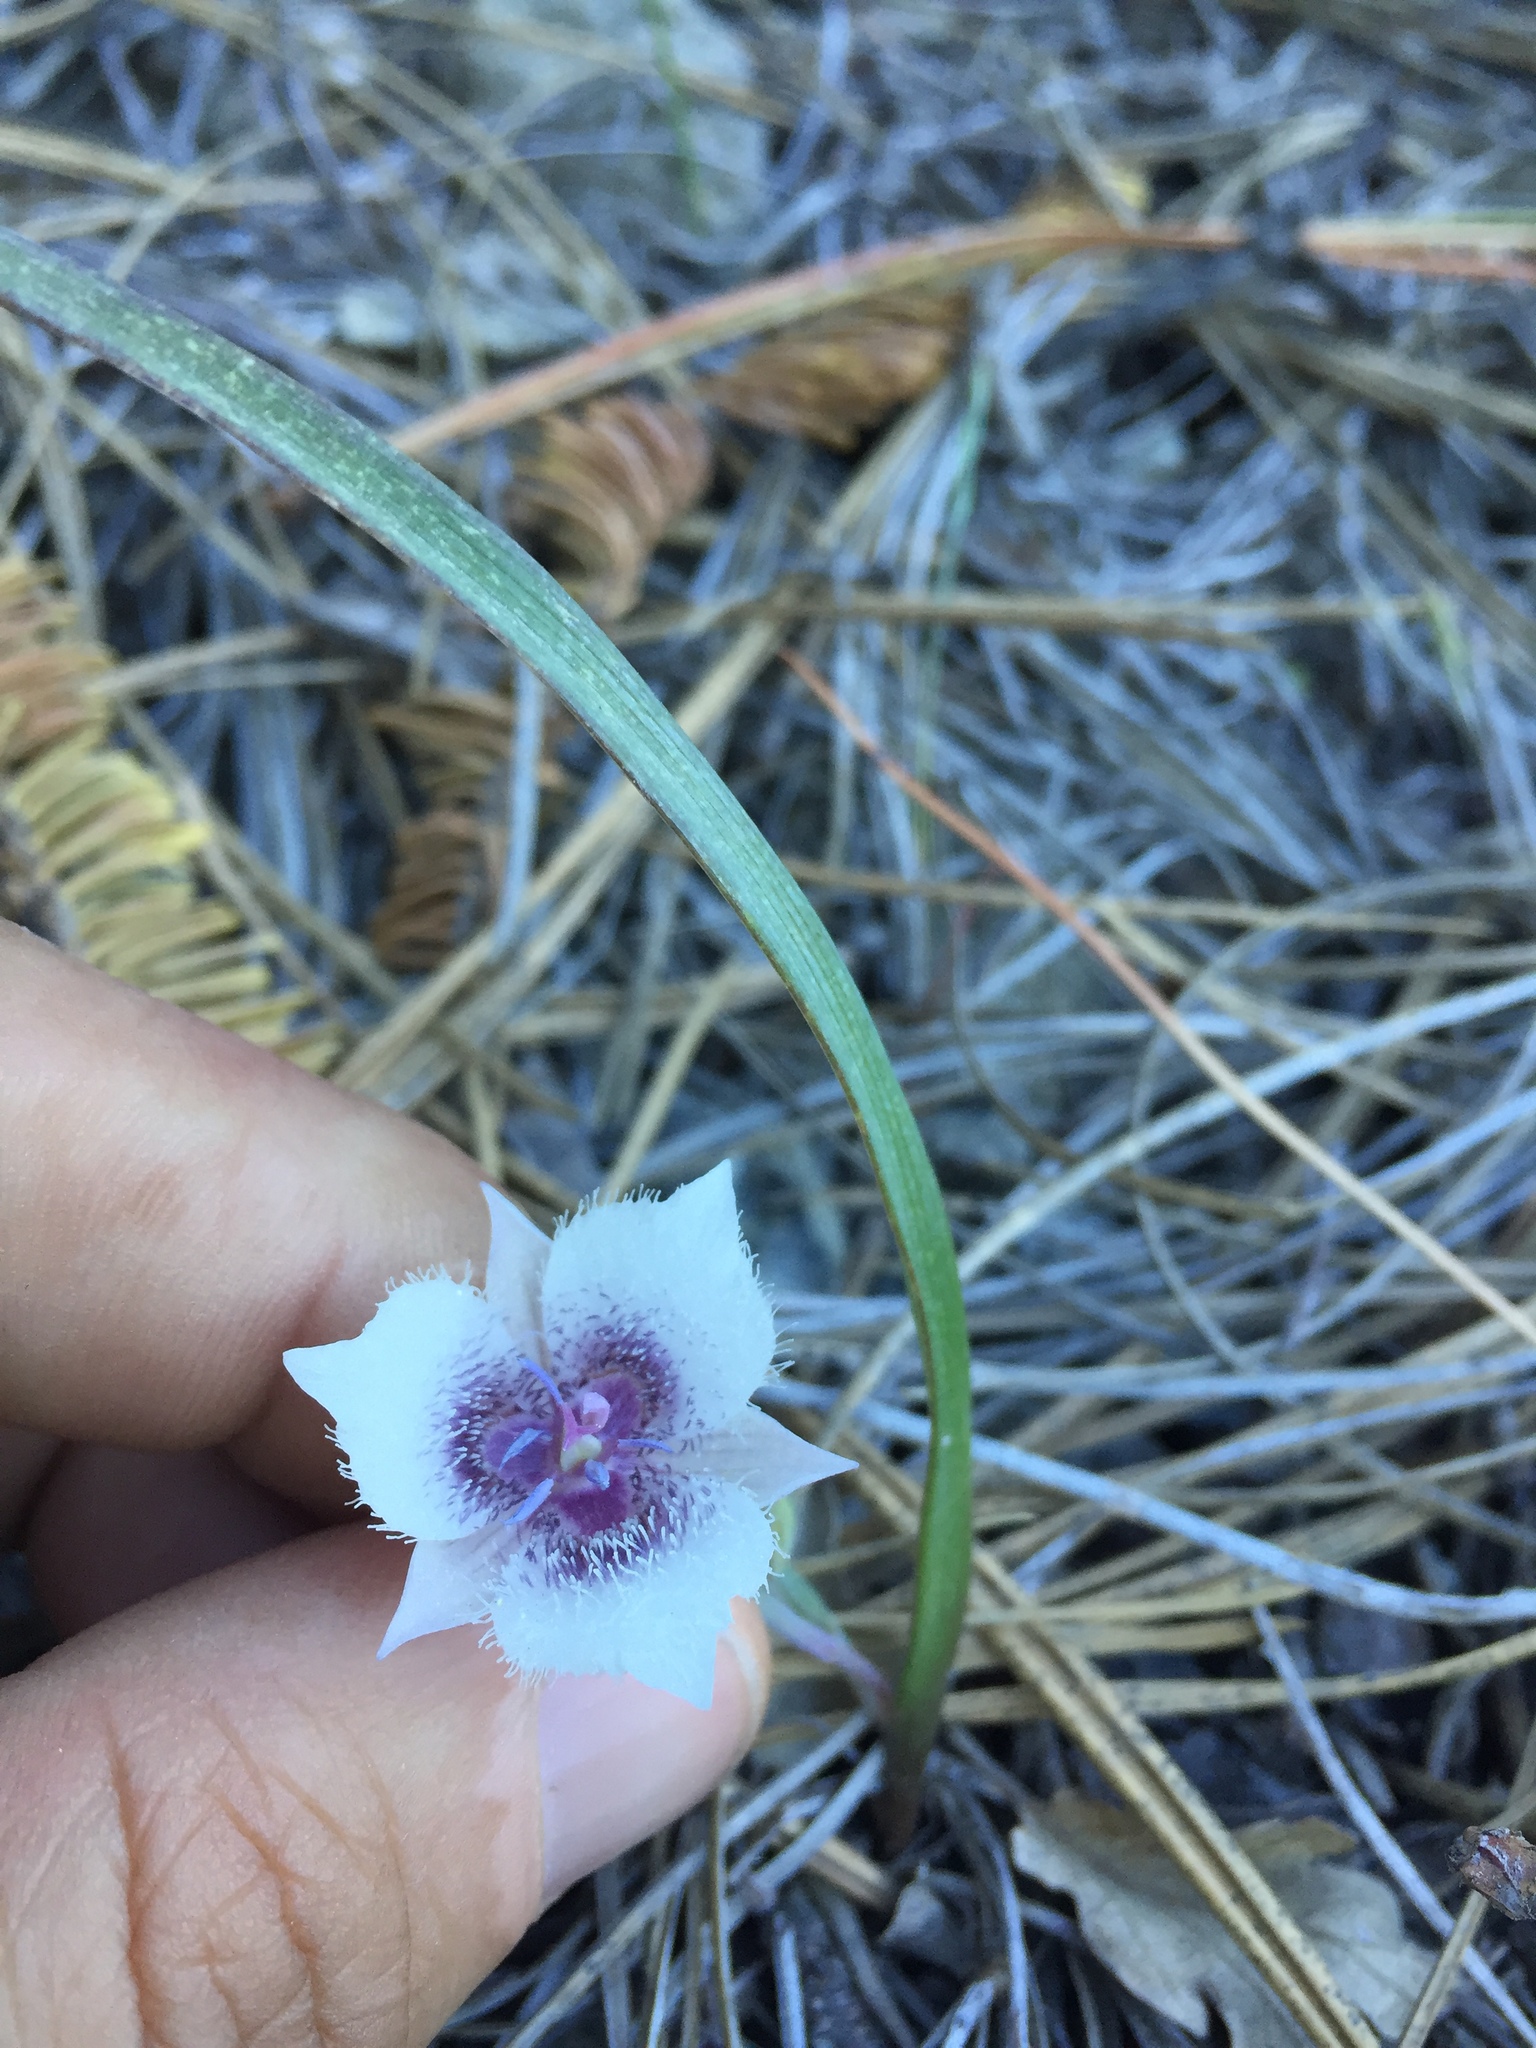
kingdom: Plantae
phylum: Tracheophyta
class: Liliopsida
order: Liliales
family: Liliaceae
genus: Calochortus
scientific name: Calochortus tolmiei
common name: Pussy-ears
